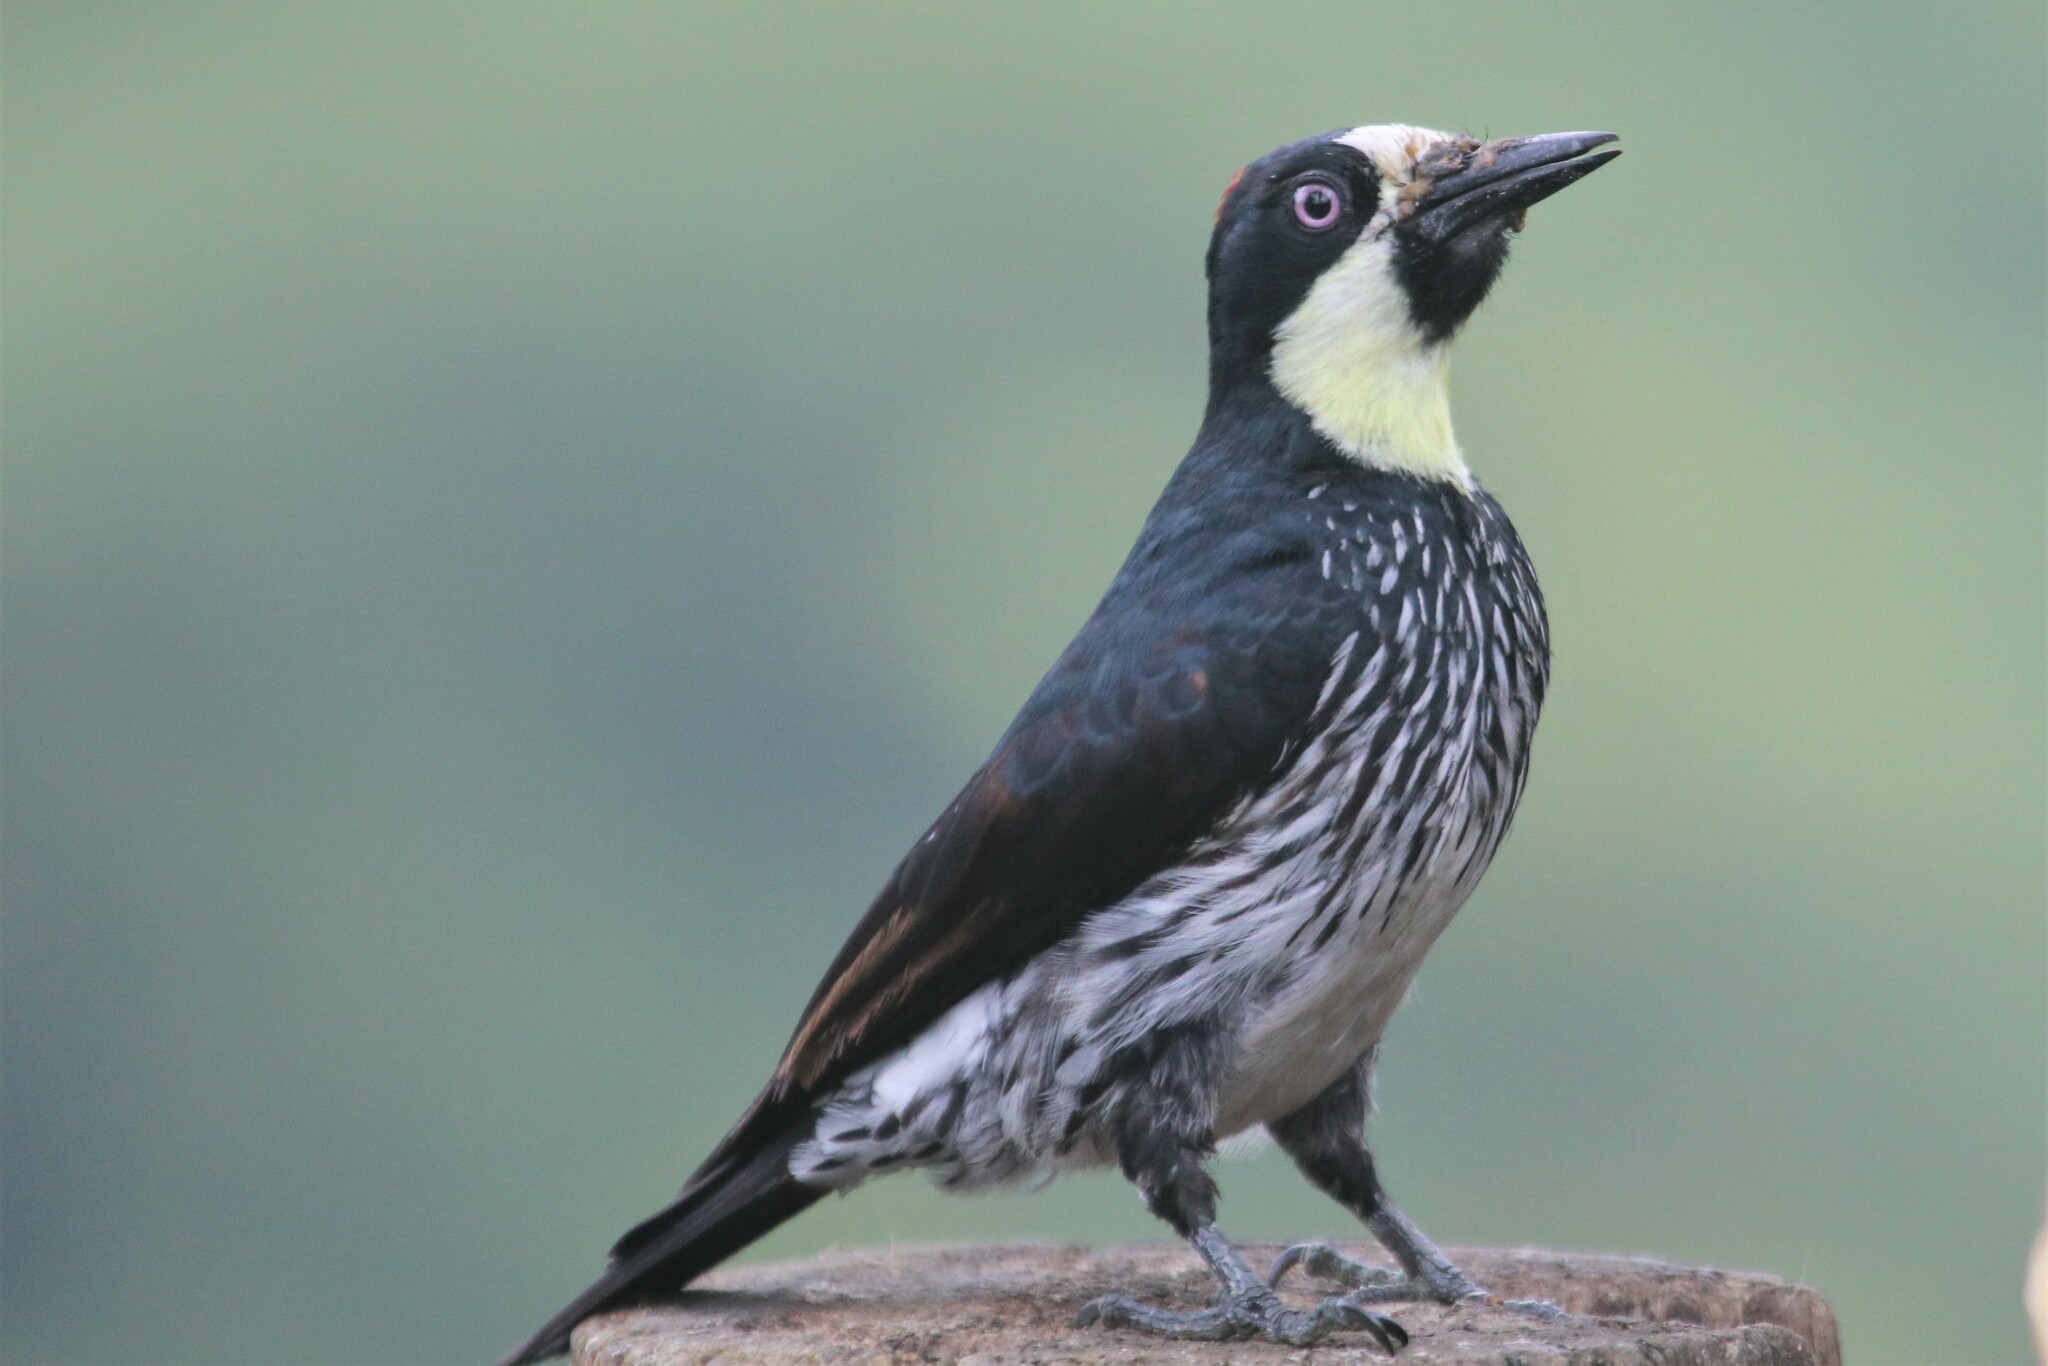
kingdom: Animalia
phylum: Chordata
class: Aves
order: Piciformes
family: Picidae
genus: Melanerpes
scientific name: Melanerpes formicivorus
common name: Acorn woodpecker
